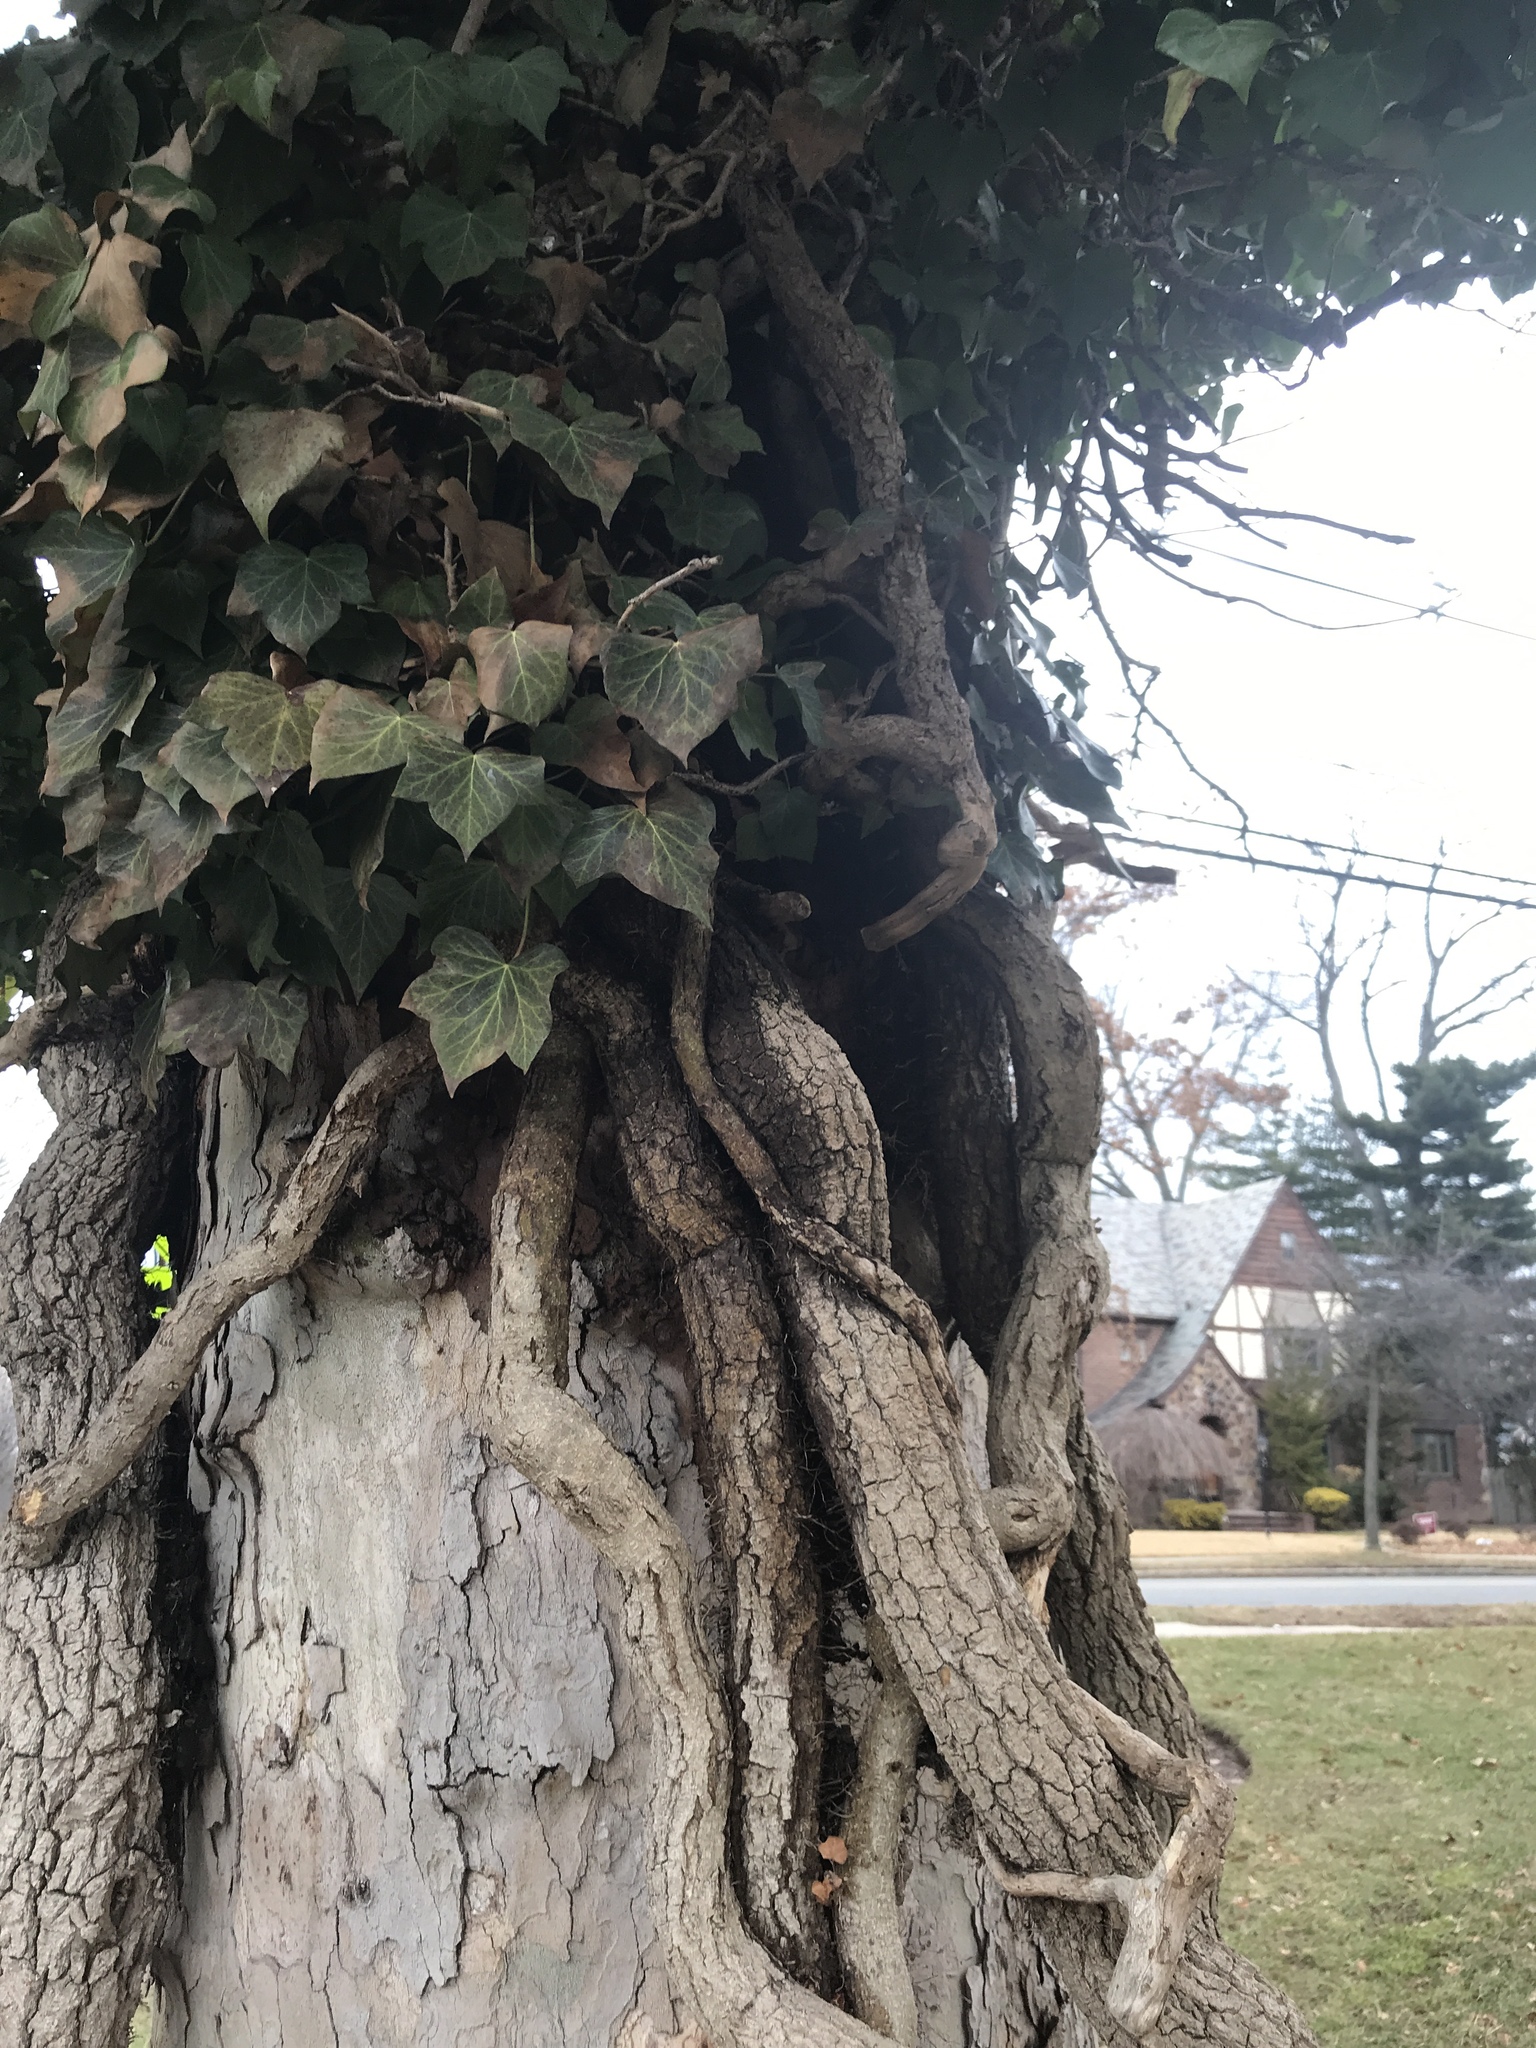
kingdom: Plantae
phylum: Tracheophyta
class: Magnoliopsida
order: Apiales
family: Araliaceae
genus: Hedera
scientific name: Hedera helix
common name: Ivy
